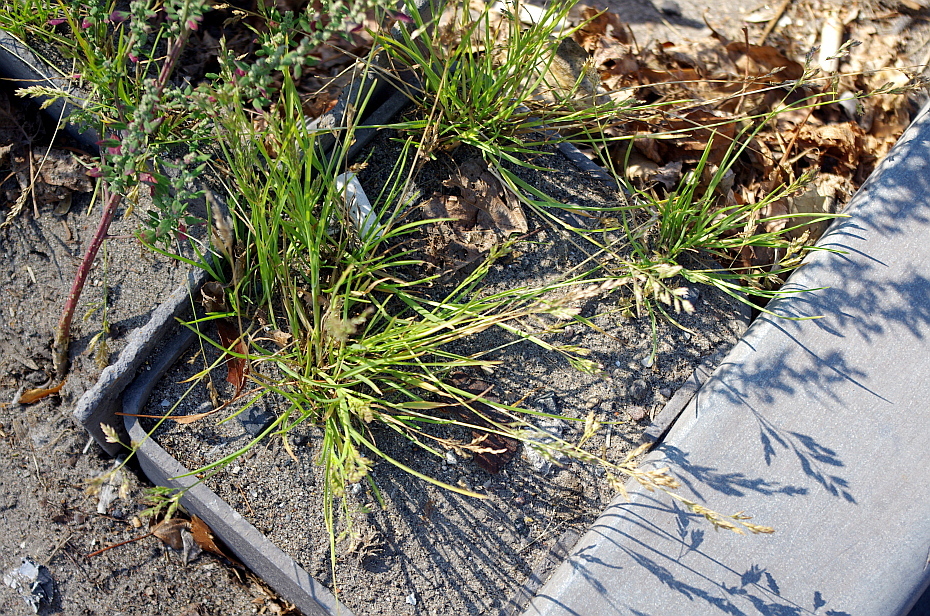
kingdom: Plantae
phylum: Tracheophyta
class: Liliopsida
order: Poales
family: Poaceae
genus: Poa
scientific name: Poa annua
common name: Annual bluegrass
